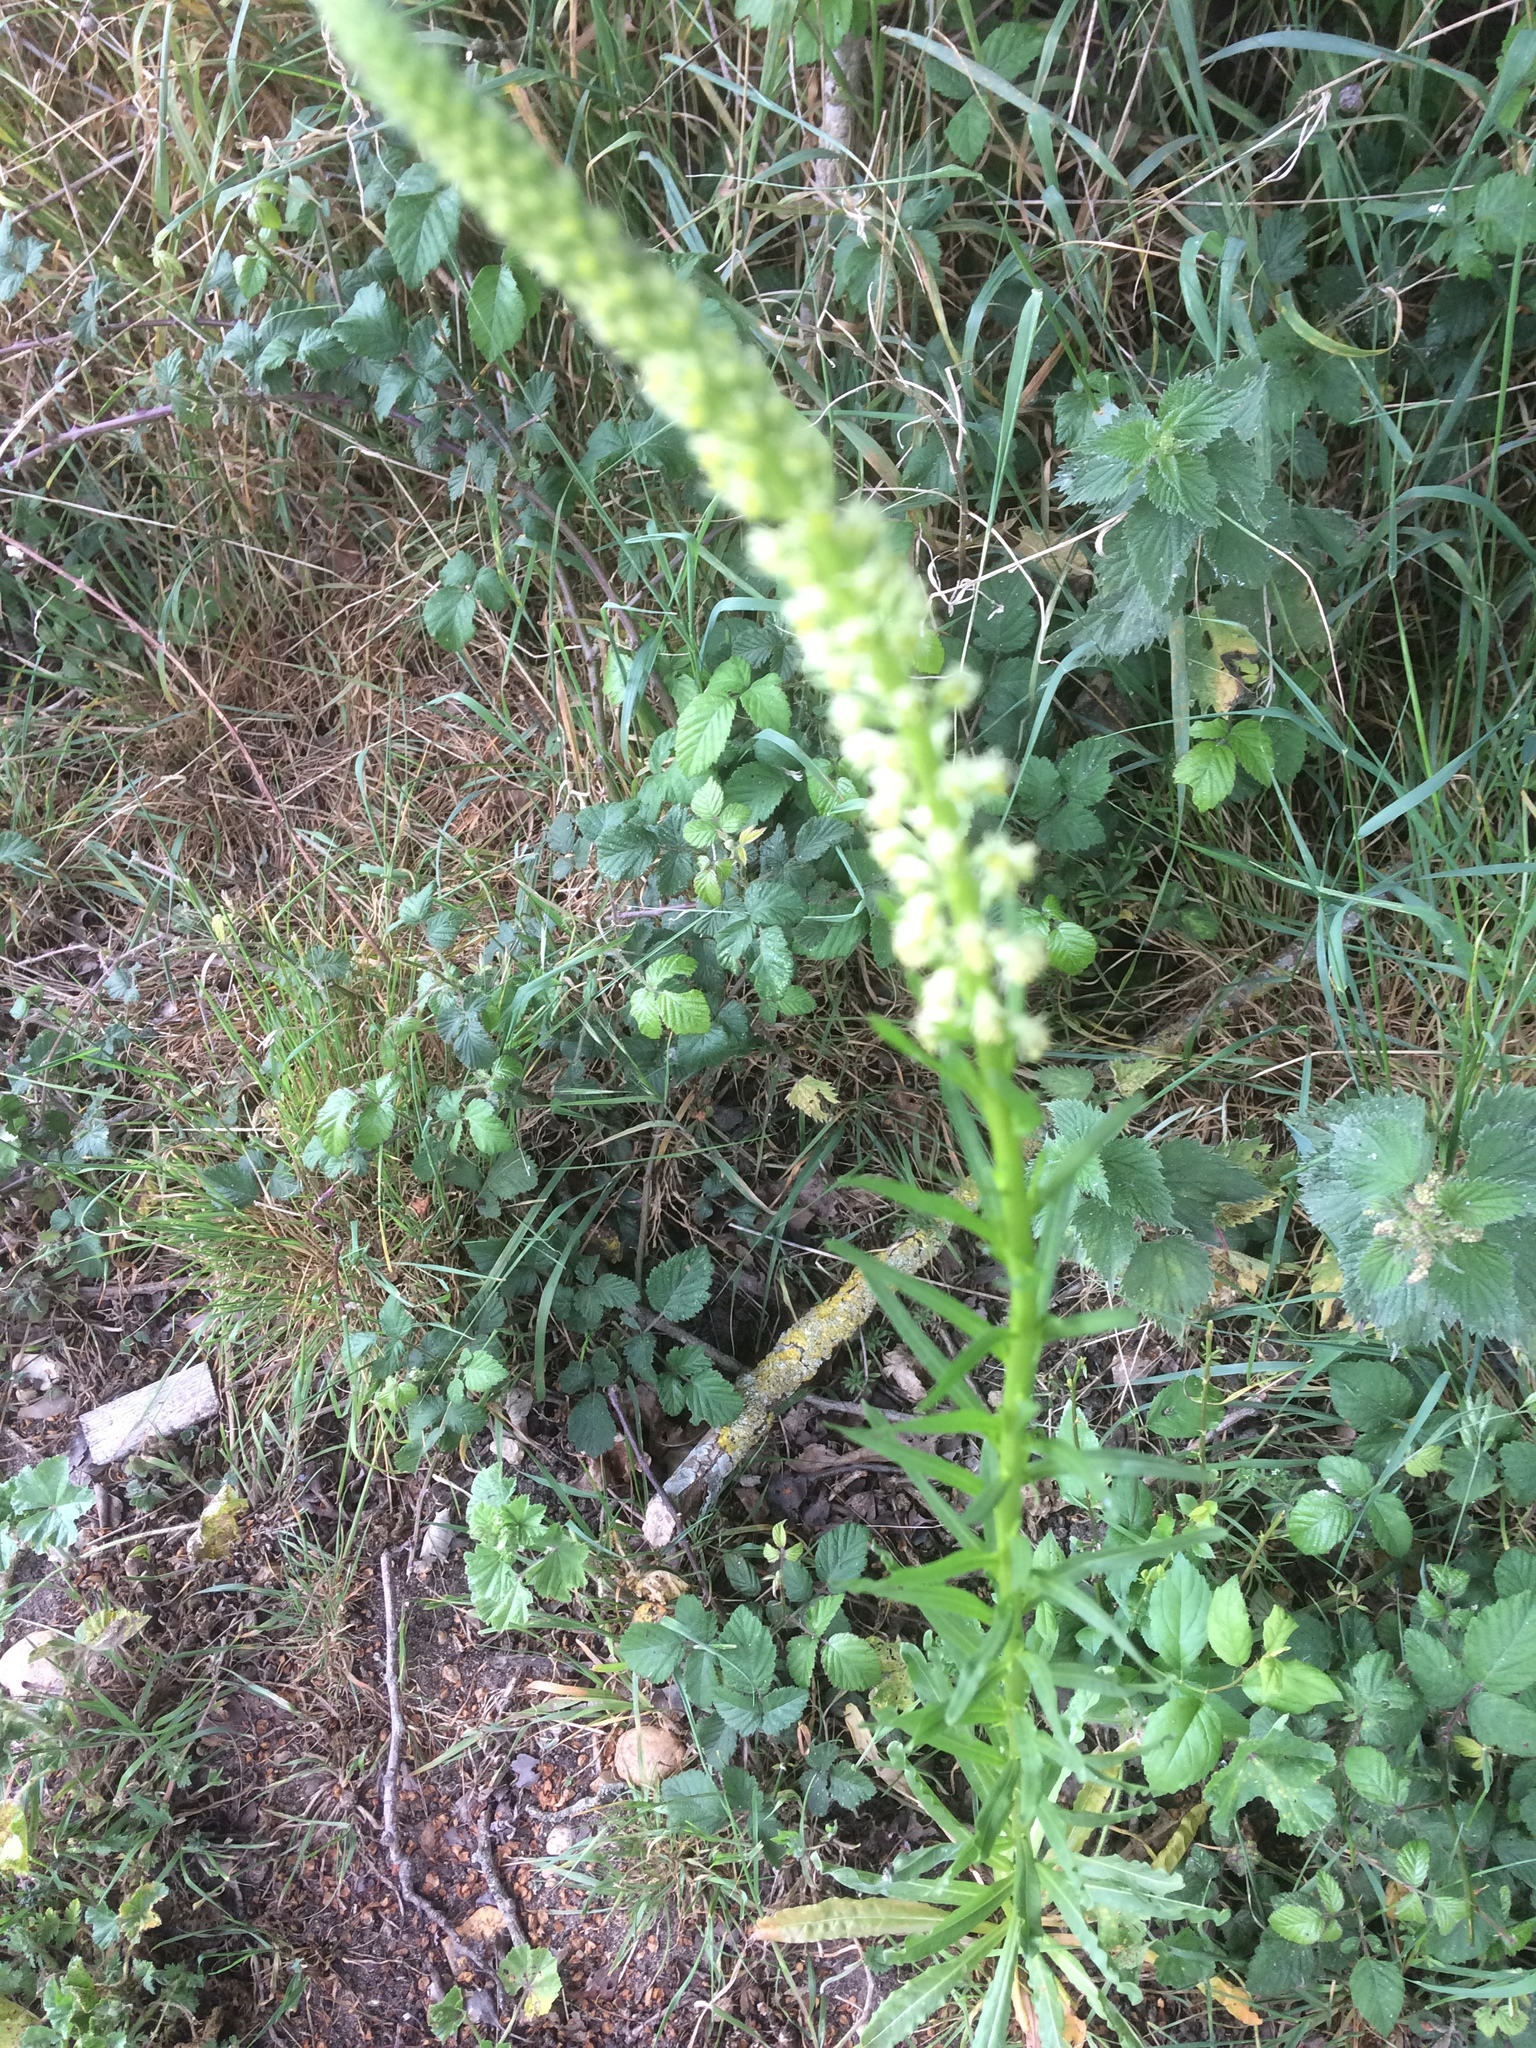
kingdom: Plantae
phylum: Tracheophyta
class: Magnoliopsida
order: Brassicales
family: Resedaceae
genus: Reseda
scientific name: Reseda luteola
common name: Weld
